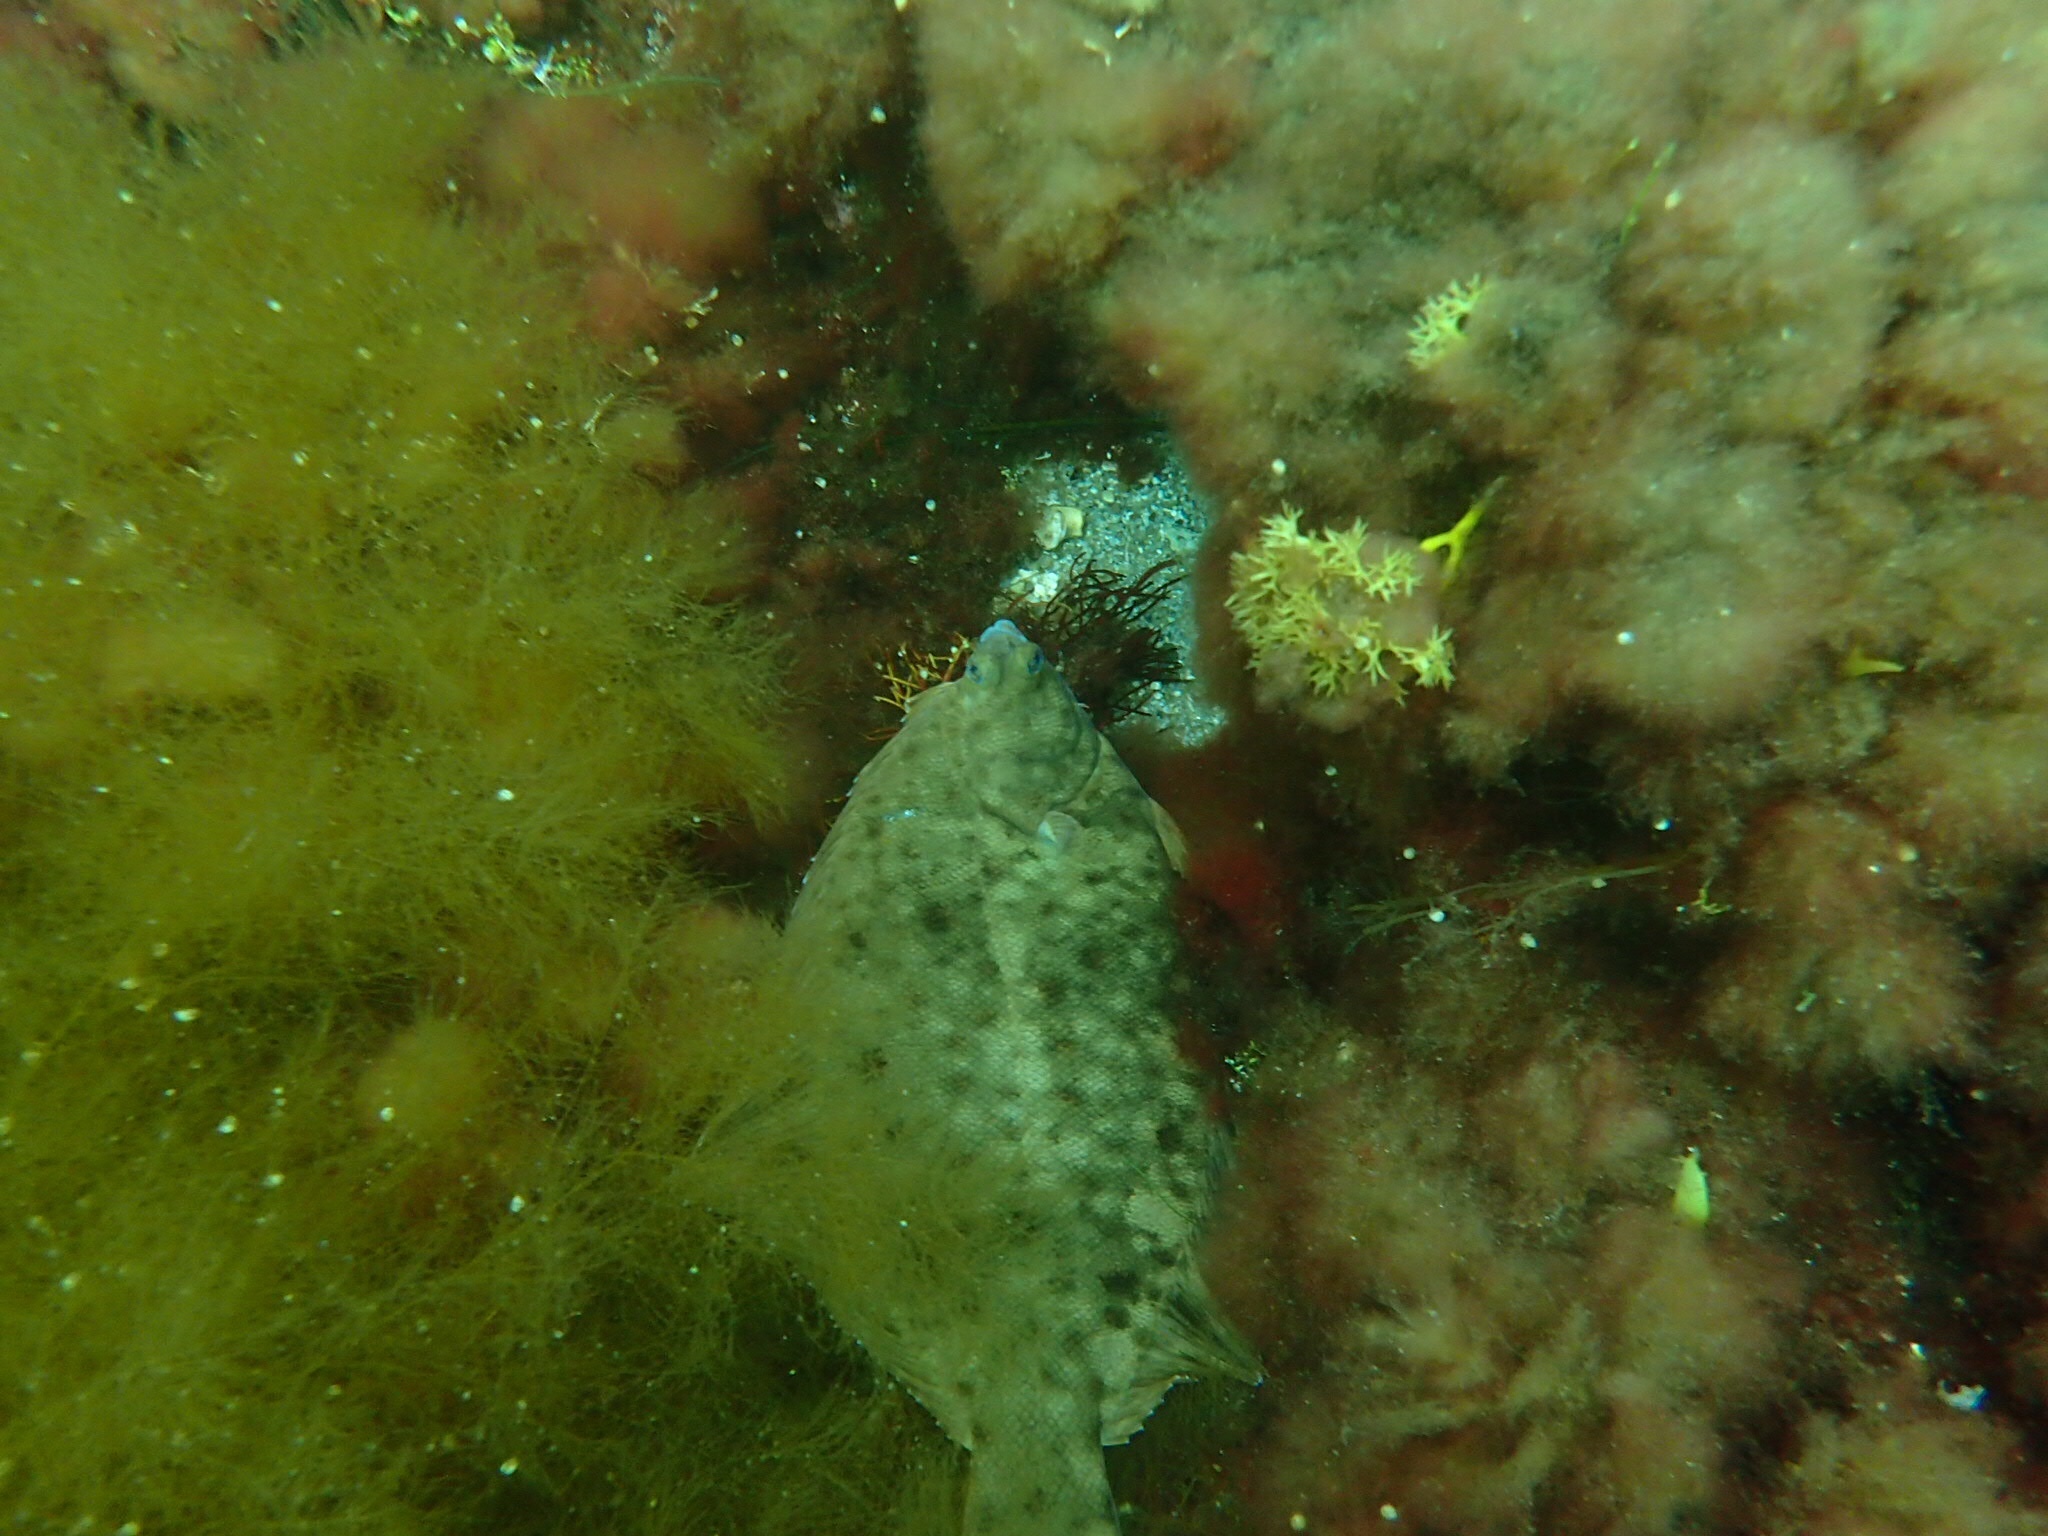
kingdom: Animalia
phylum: Chordata
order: Pleuronectiformes
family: Pleuronectidae
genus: Pseudopleuronectes
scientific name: Pseudopleuronectes americanus
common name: Black backs
